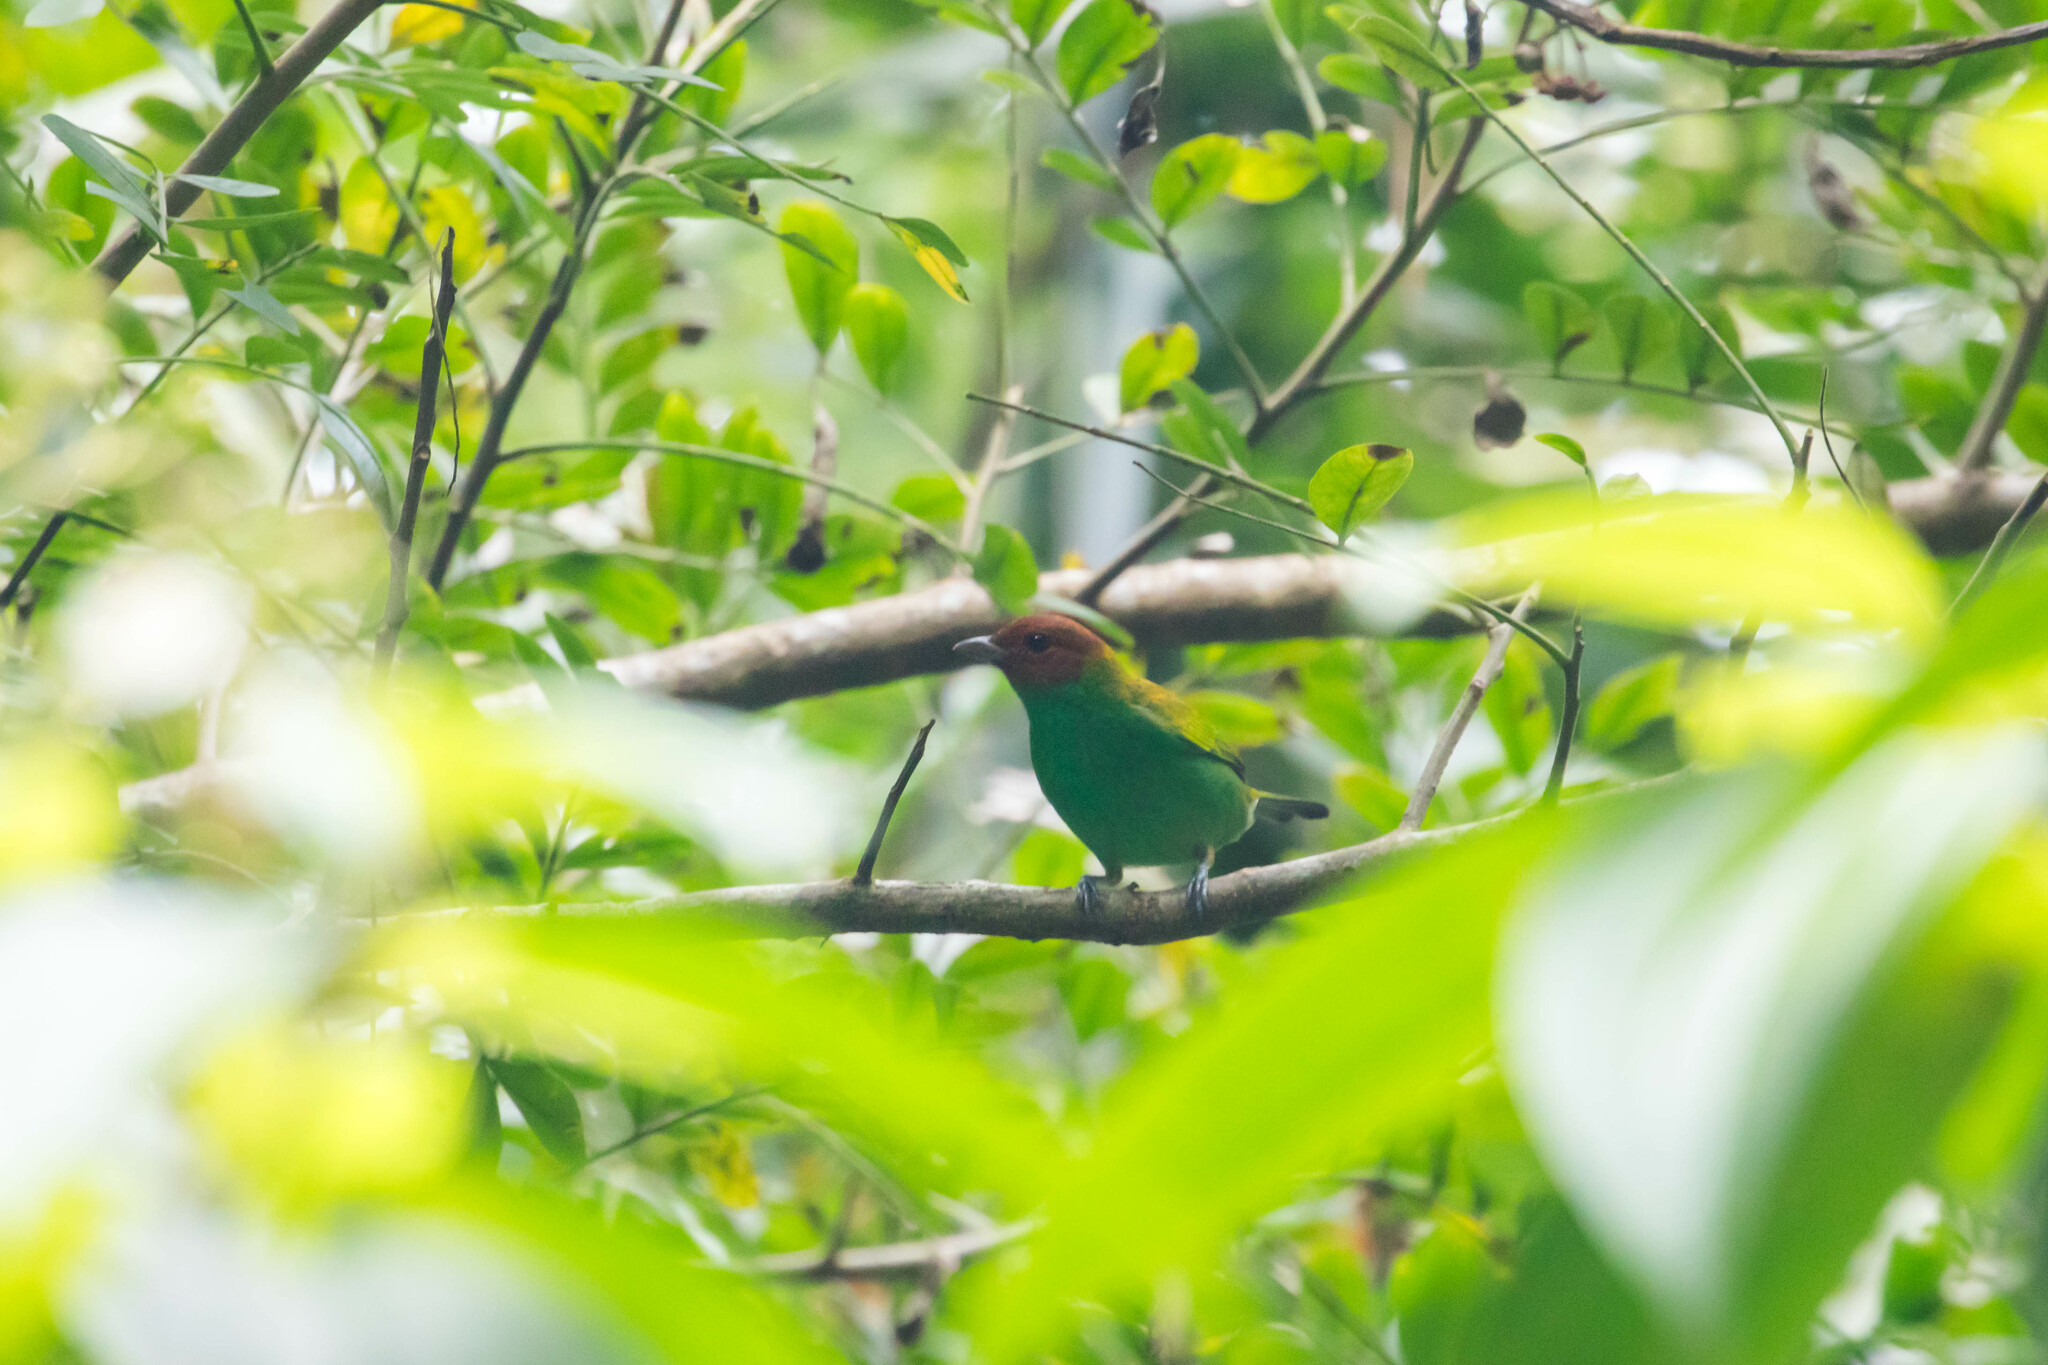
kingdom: Animalia
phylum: Chordata
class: Aves
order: Passeriformes
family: Thraupidae
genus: Tangara
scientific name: Tangara gyrola
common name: Bay-headed tanager
